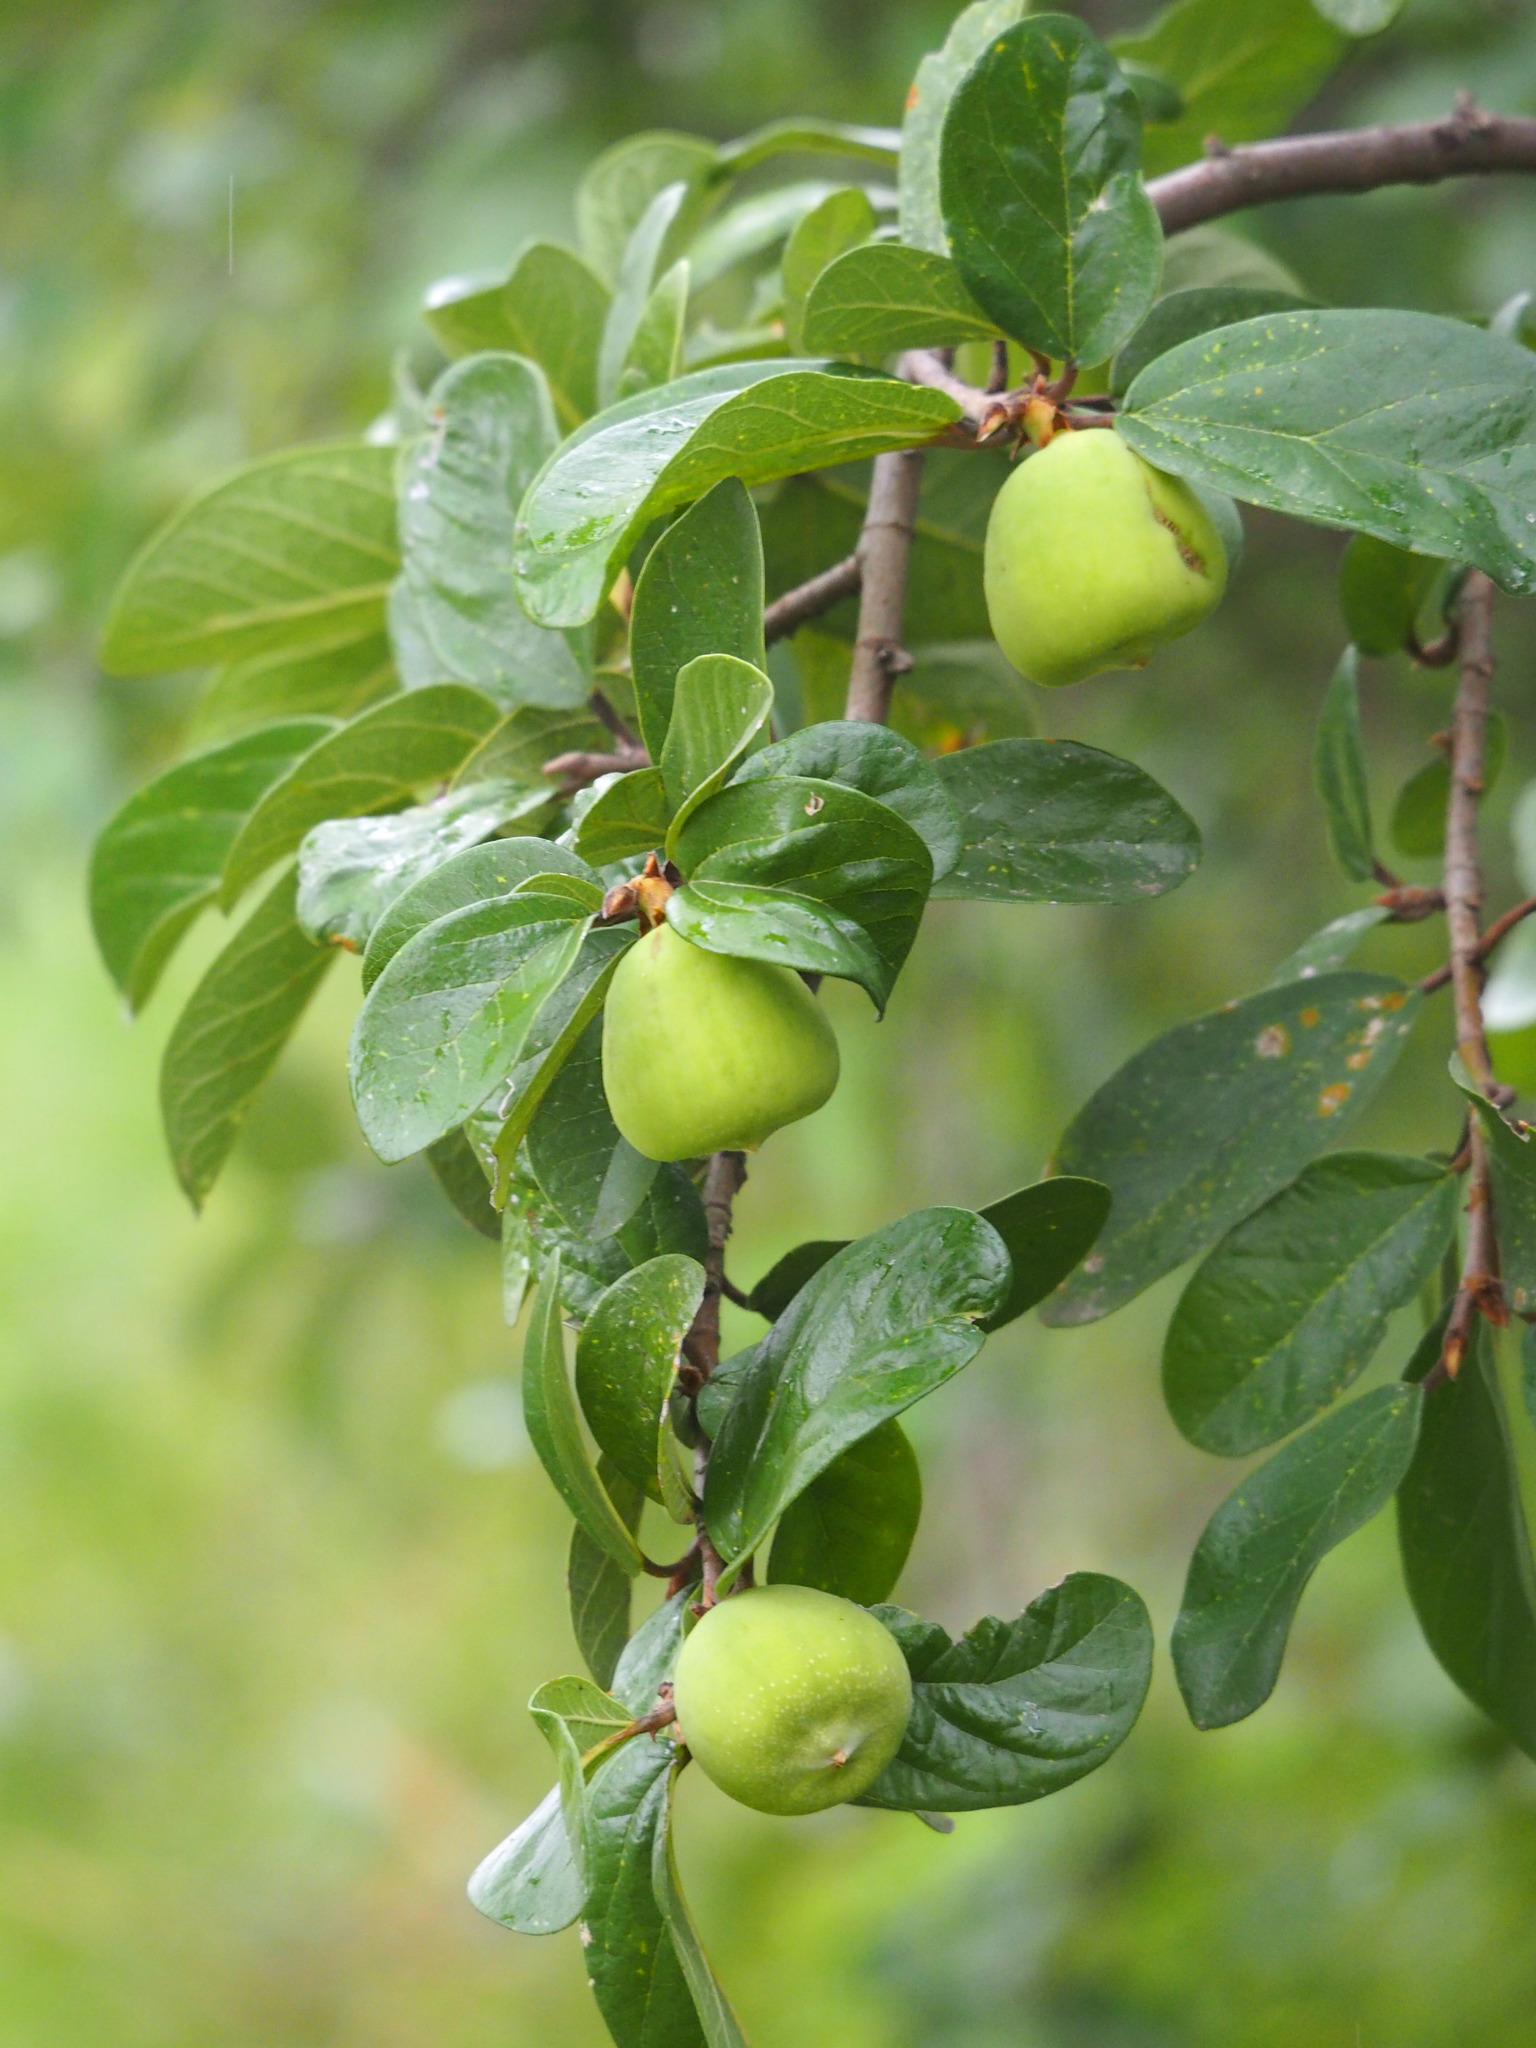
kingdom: Plantae
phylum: Tracheophyta
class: Magnoliopsida
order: Rosales
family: Moraceae
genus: Ficus
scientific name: Ficus pumila
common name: Climbingfig
